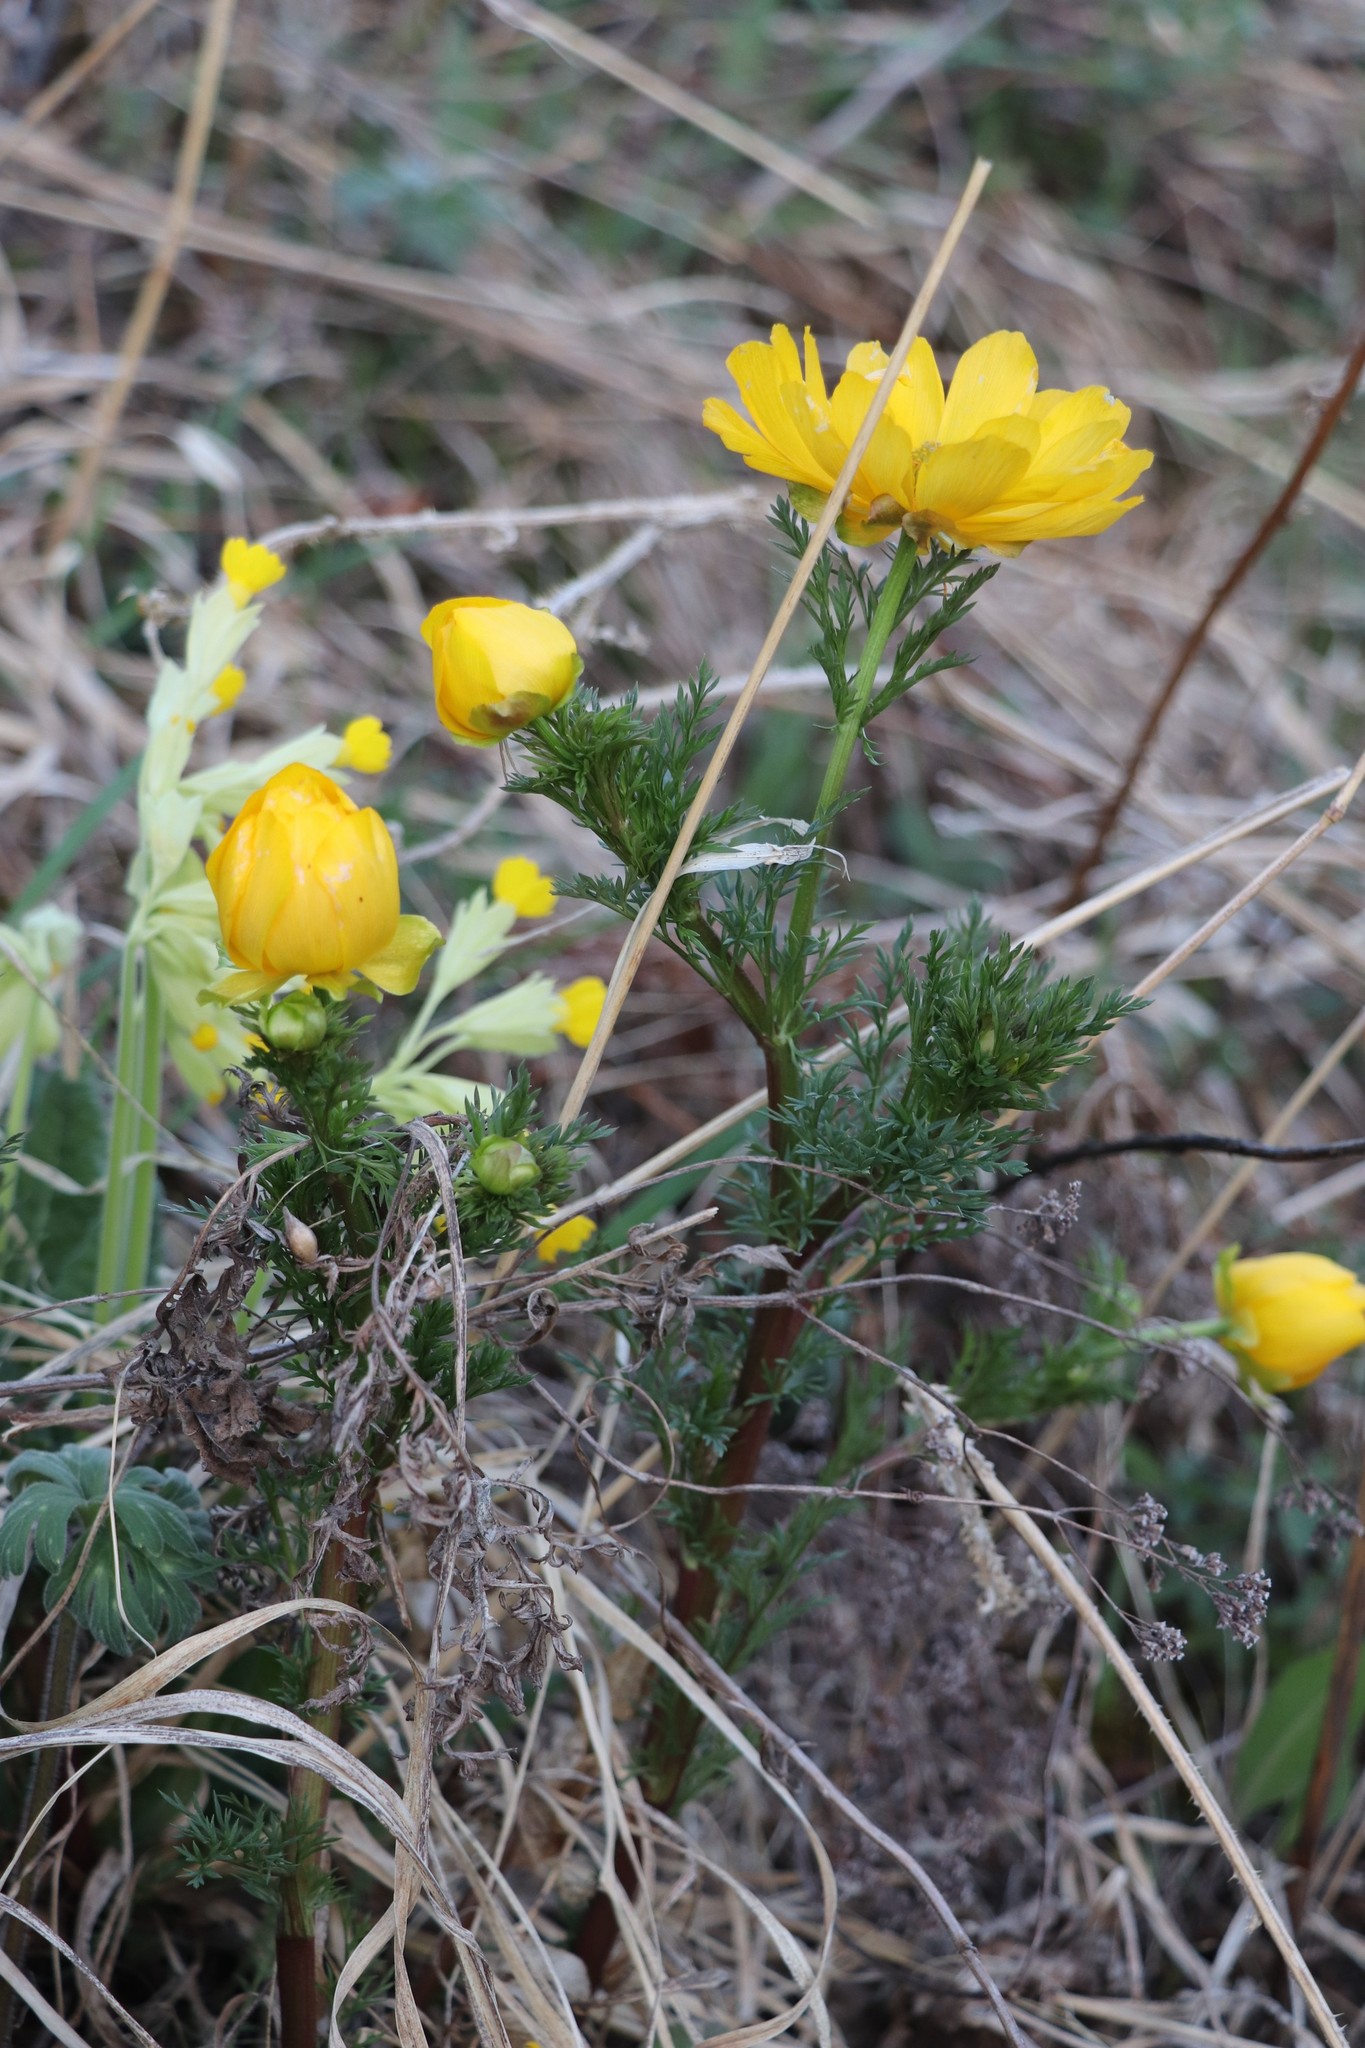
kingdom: Plantae
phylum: Tracheophyta
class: Magnoliopsida
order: Ranunculales
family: Ranunculaceae
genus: Adonis
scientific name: Adonis
